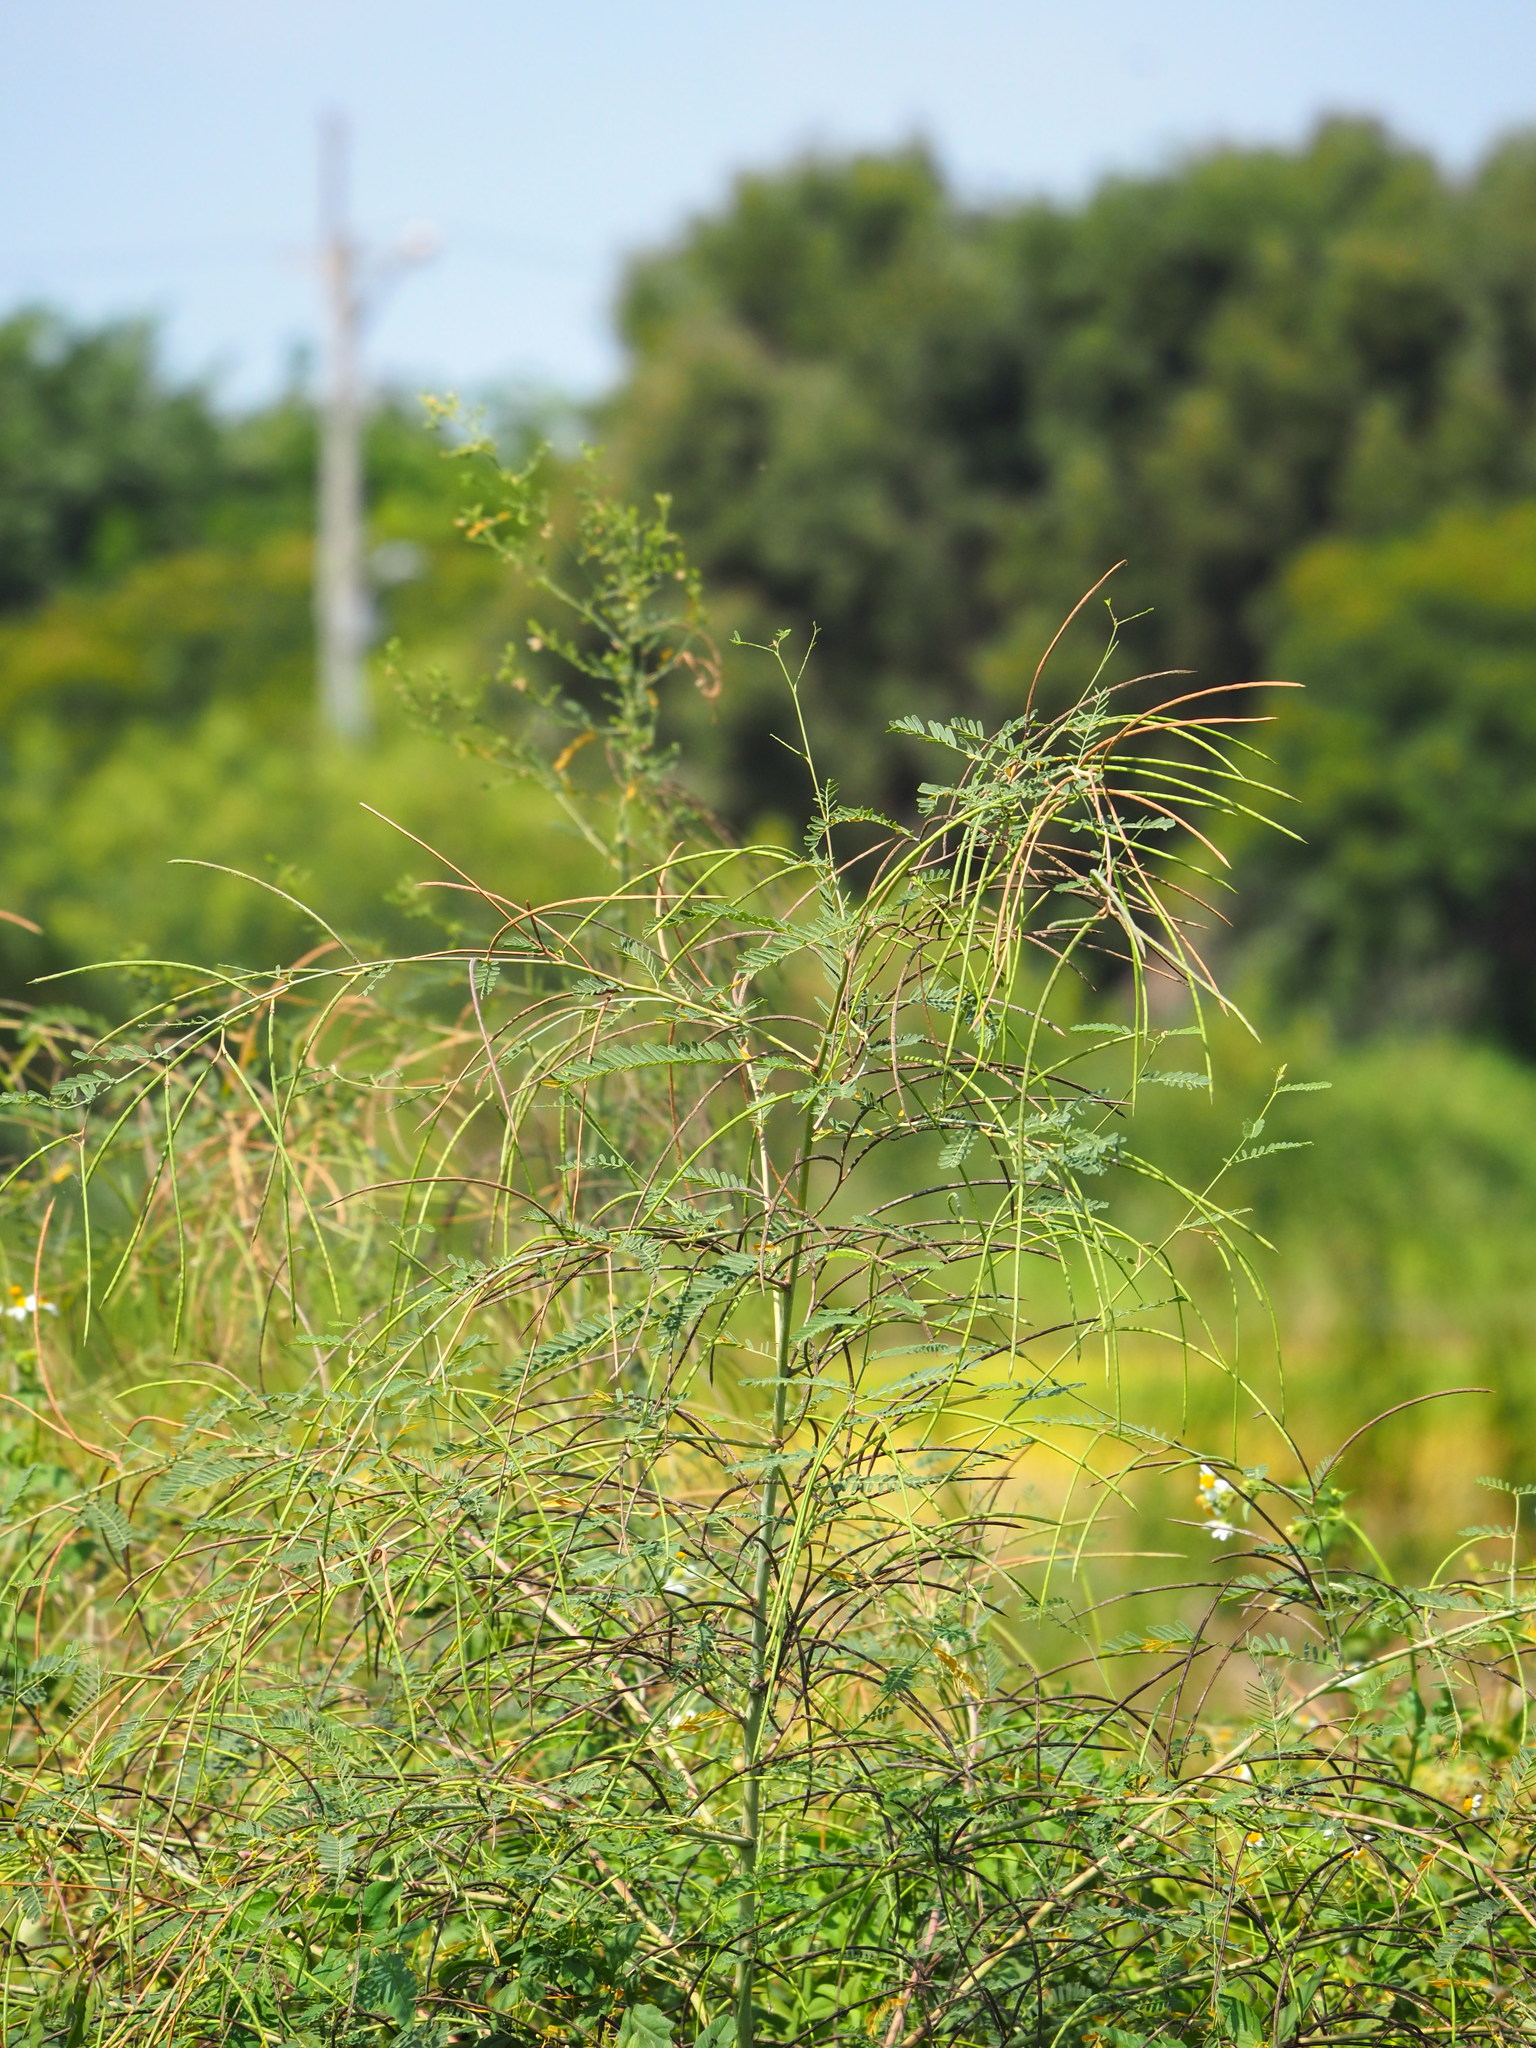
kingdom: Plantae
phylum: Tracheophyta
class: Magnoliopsida
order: Fabales
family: Fabaceae
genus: Sesbania
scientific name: Sesbania cannabina
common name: Canicha
